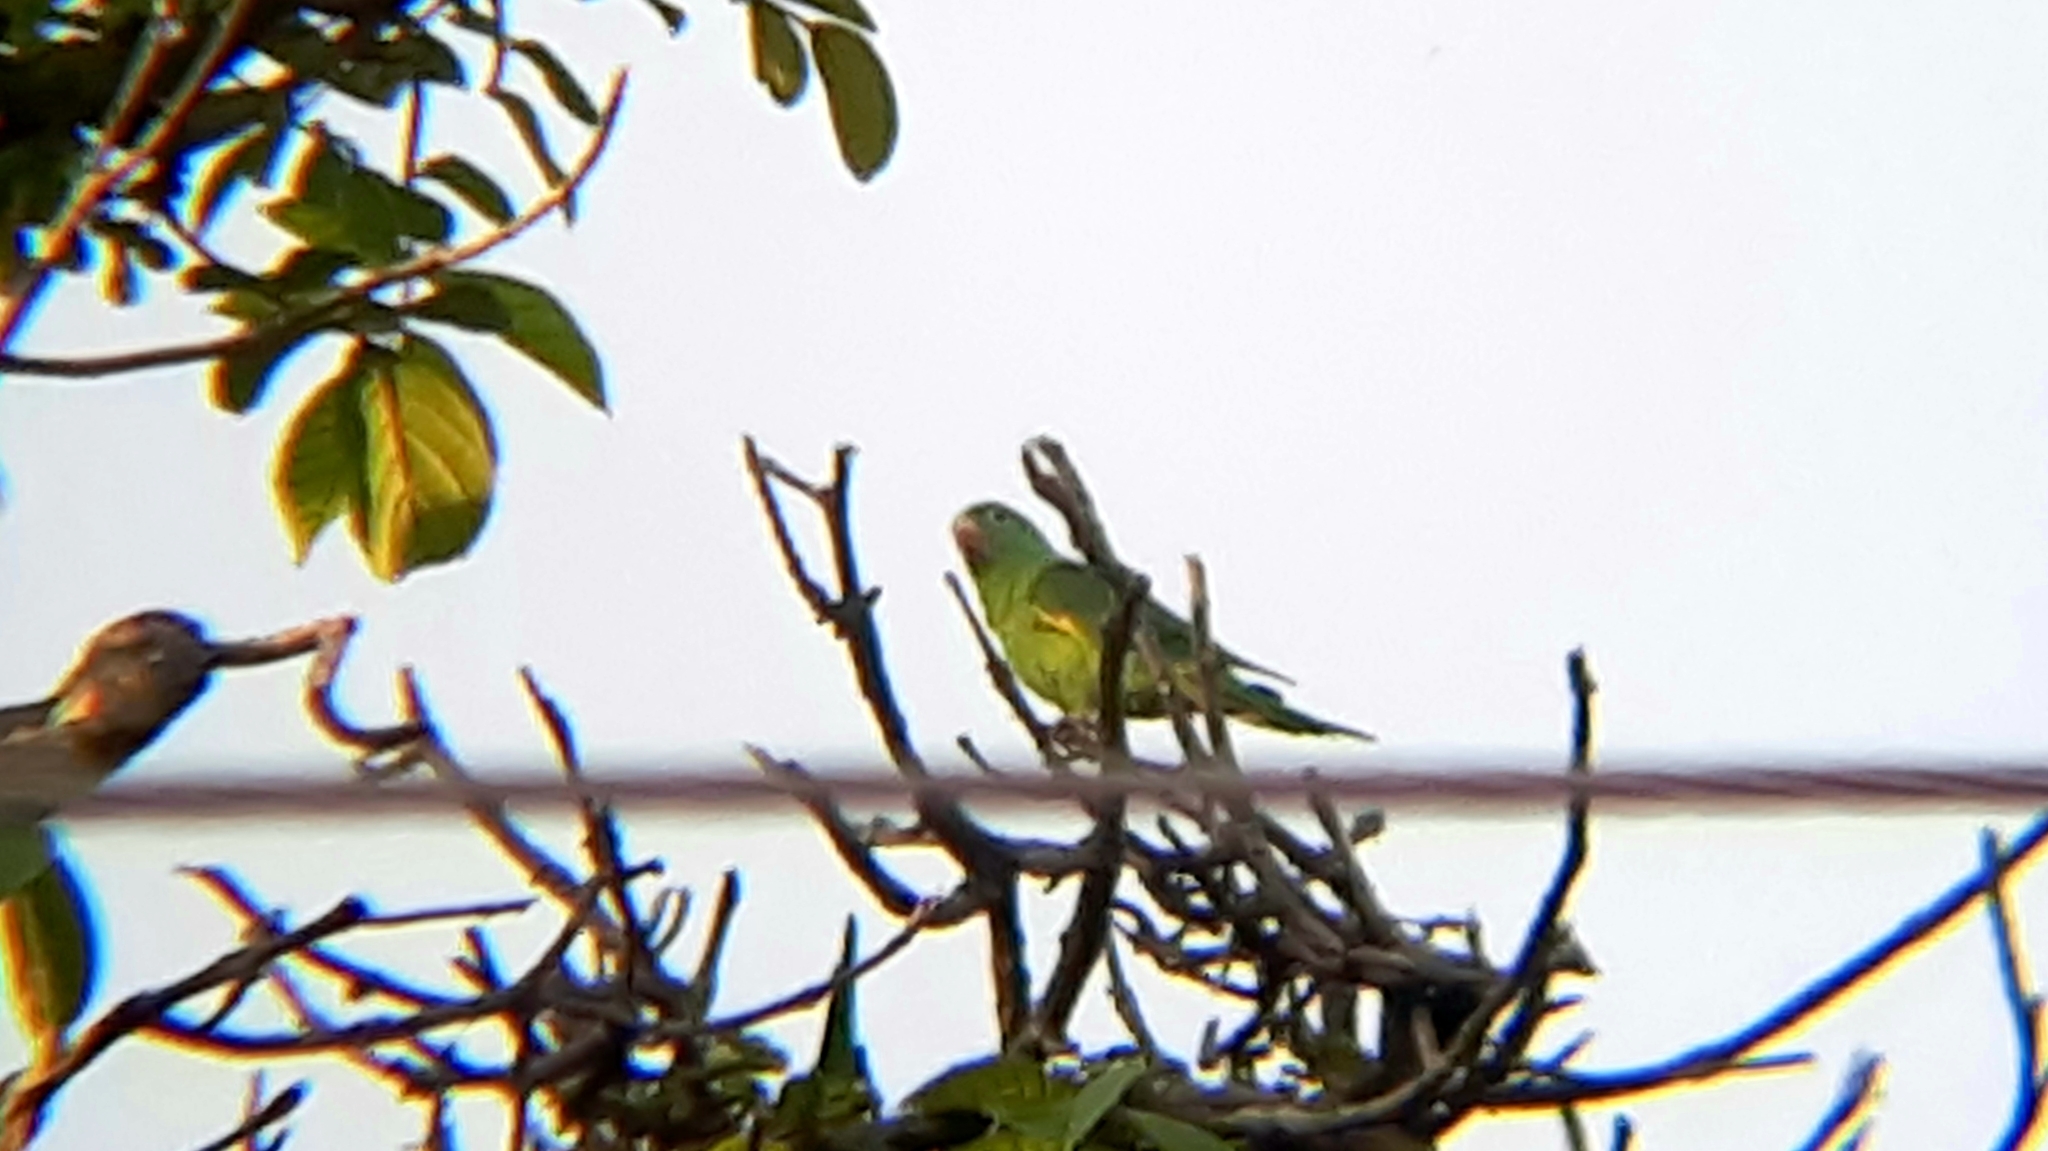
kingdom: Animalia
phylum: Chordata
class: Aves
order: Psittaciformes
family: Psittacidae
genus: Brotogeris
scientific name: Brotogeris chiriri
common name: Yellow-chevroned parakeet
